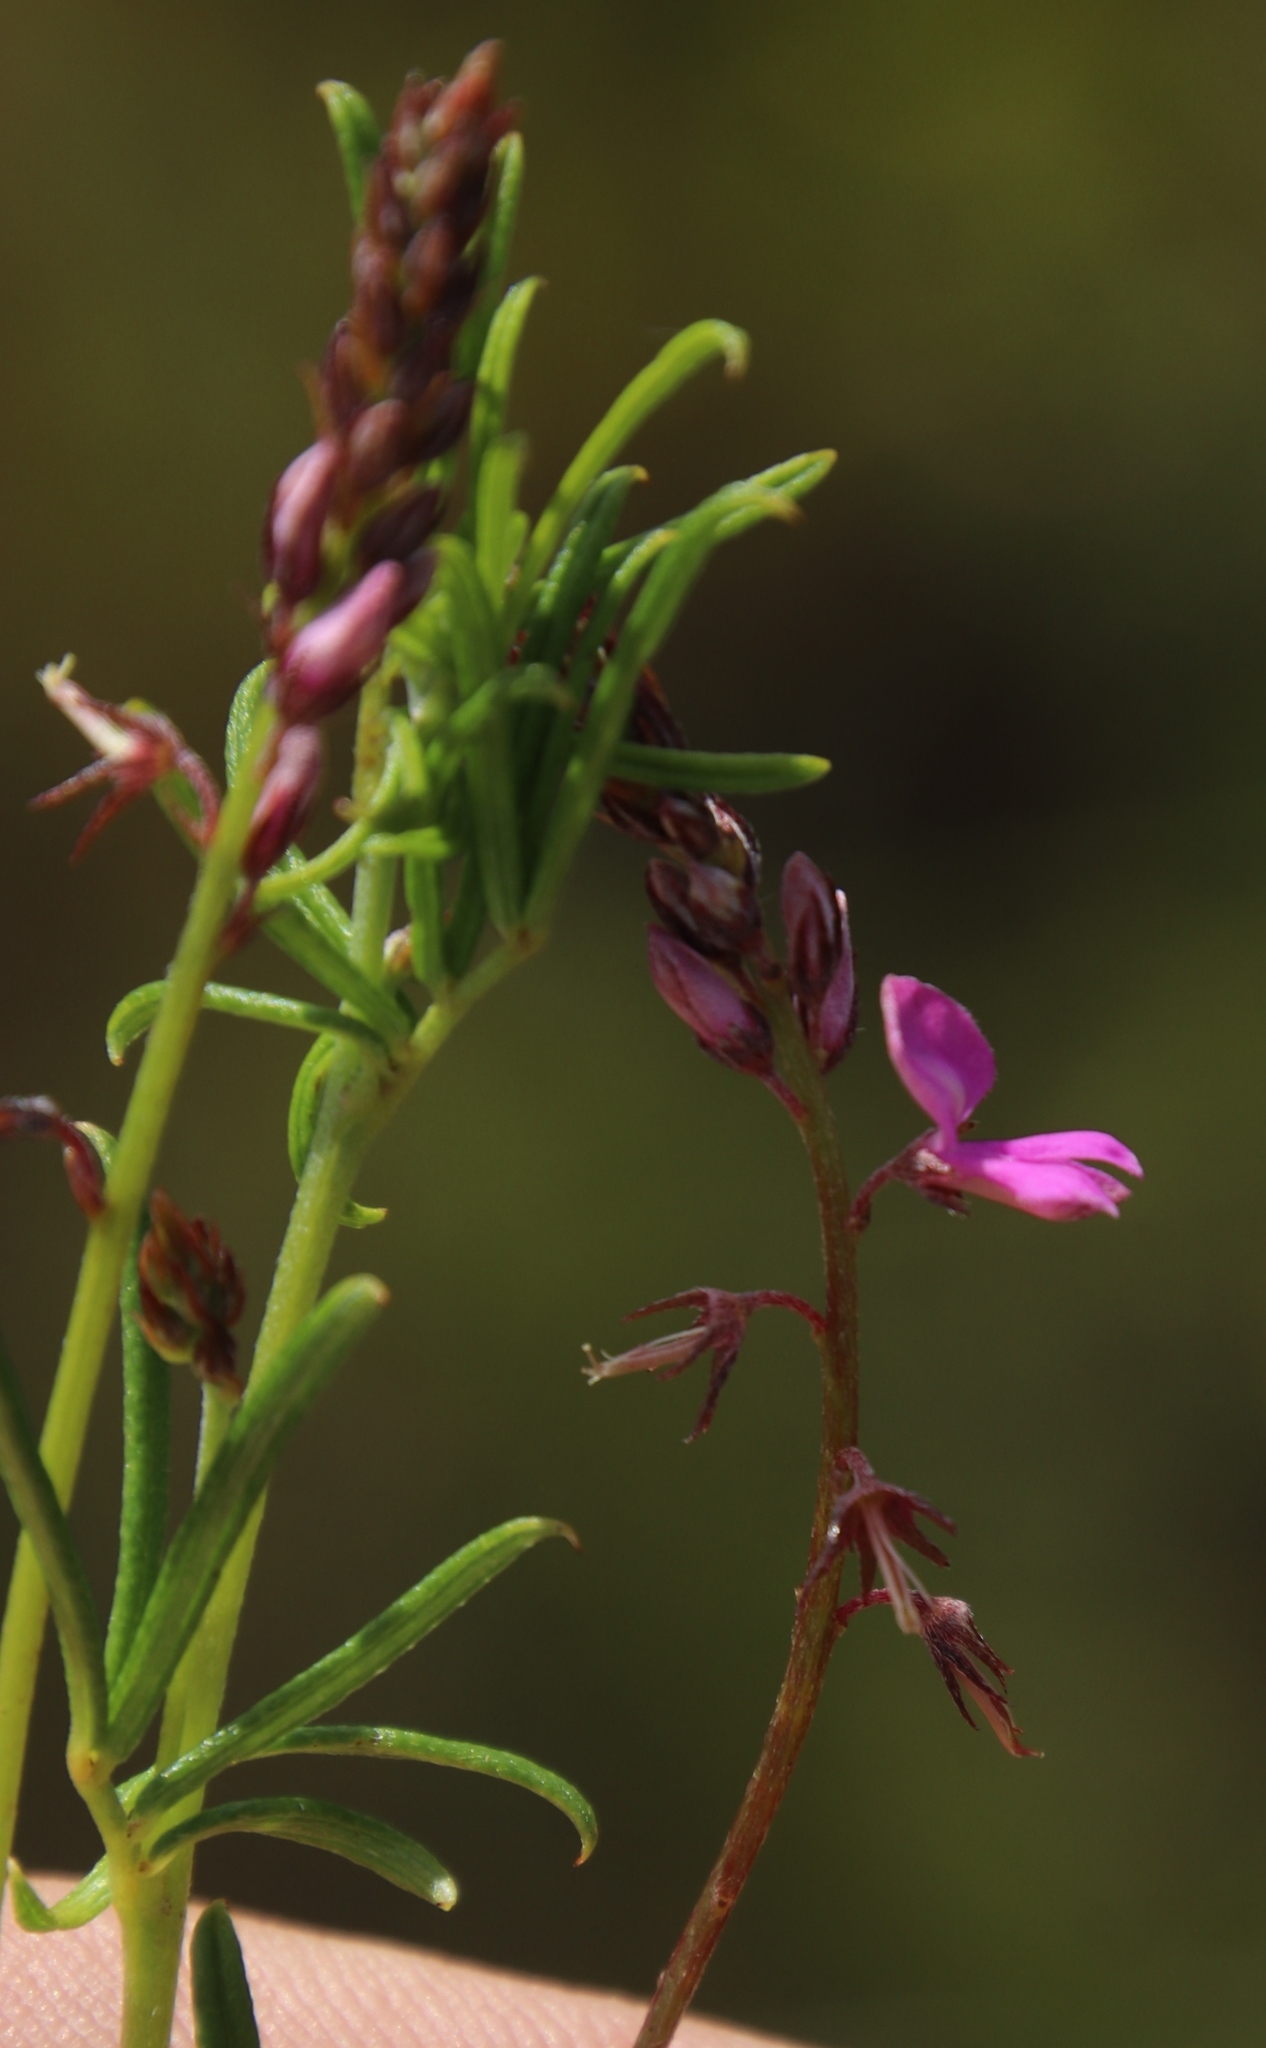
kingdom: Plantae
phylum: Tracheophyta
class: Magnoliopsida
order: Fabales
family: Fabaceae
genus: Indigofera
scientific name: Indigofera angustifolia
